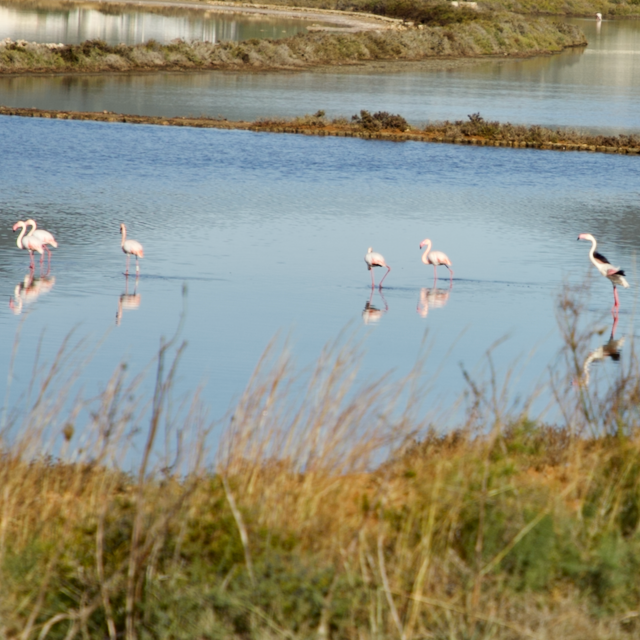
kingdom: Animalia
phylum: Chordata
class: Aves
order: Phoenicopteriformes
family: Phoenicopteridae
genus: Phoenicopterus
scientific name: Phoenicopterus roseus
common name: Greater flamingo
